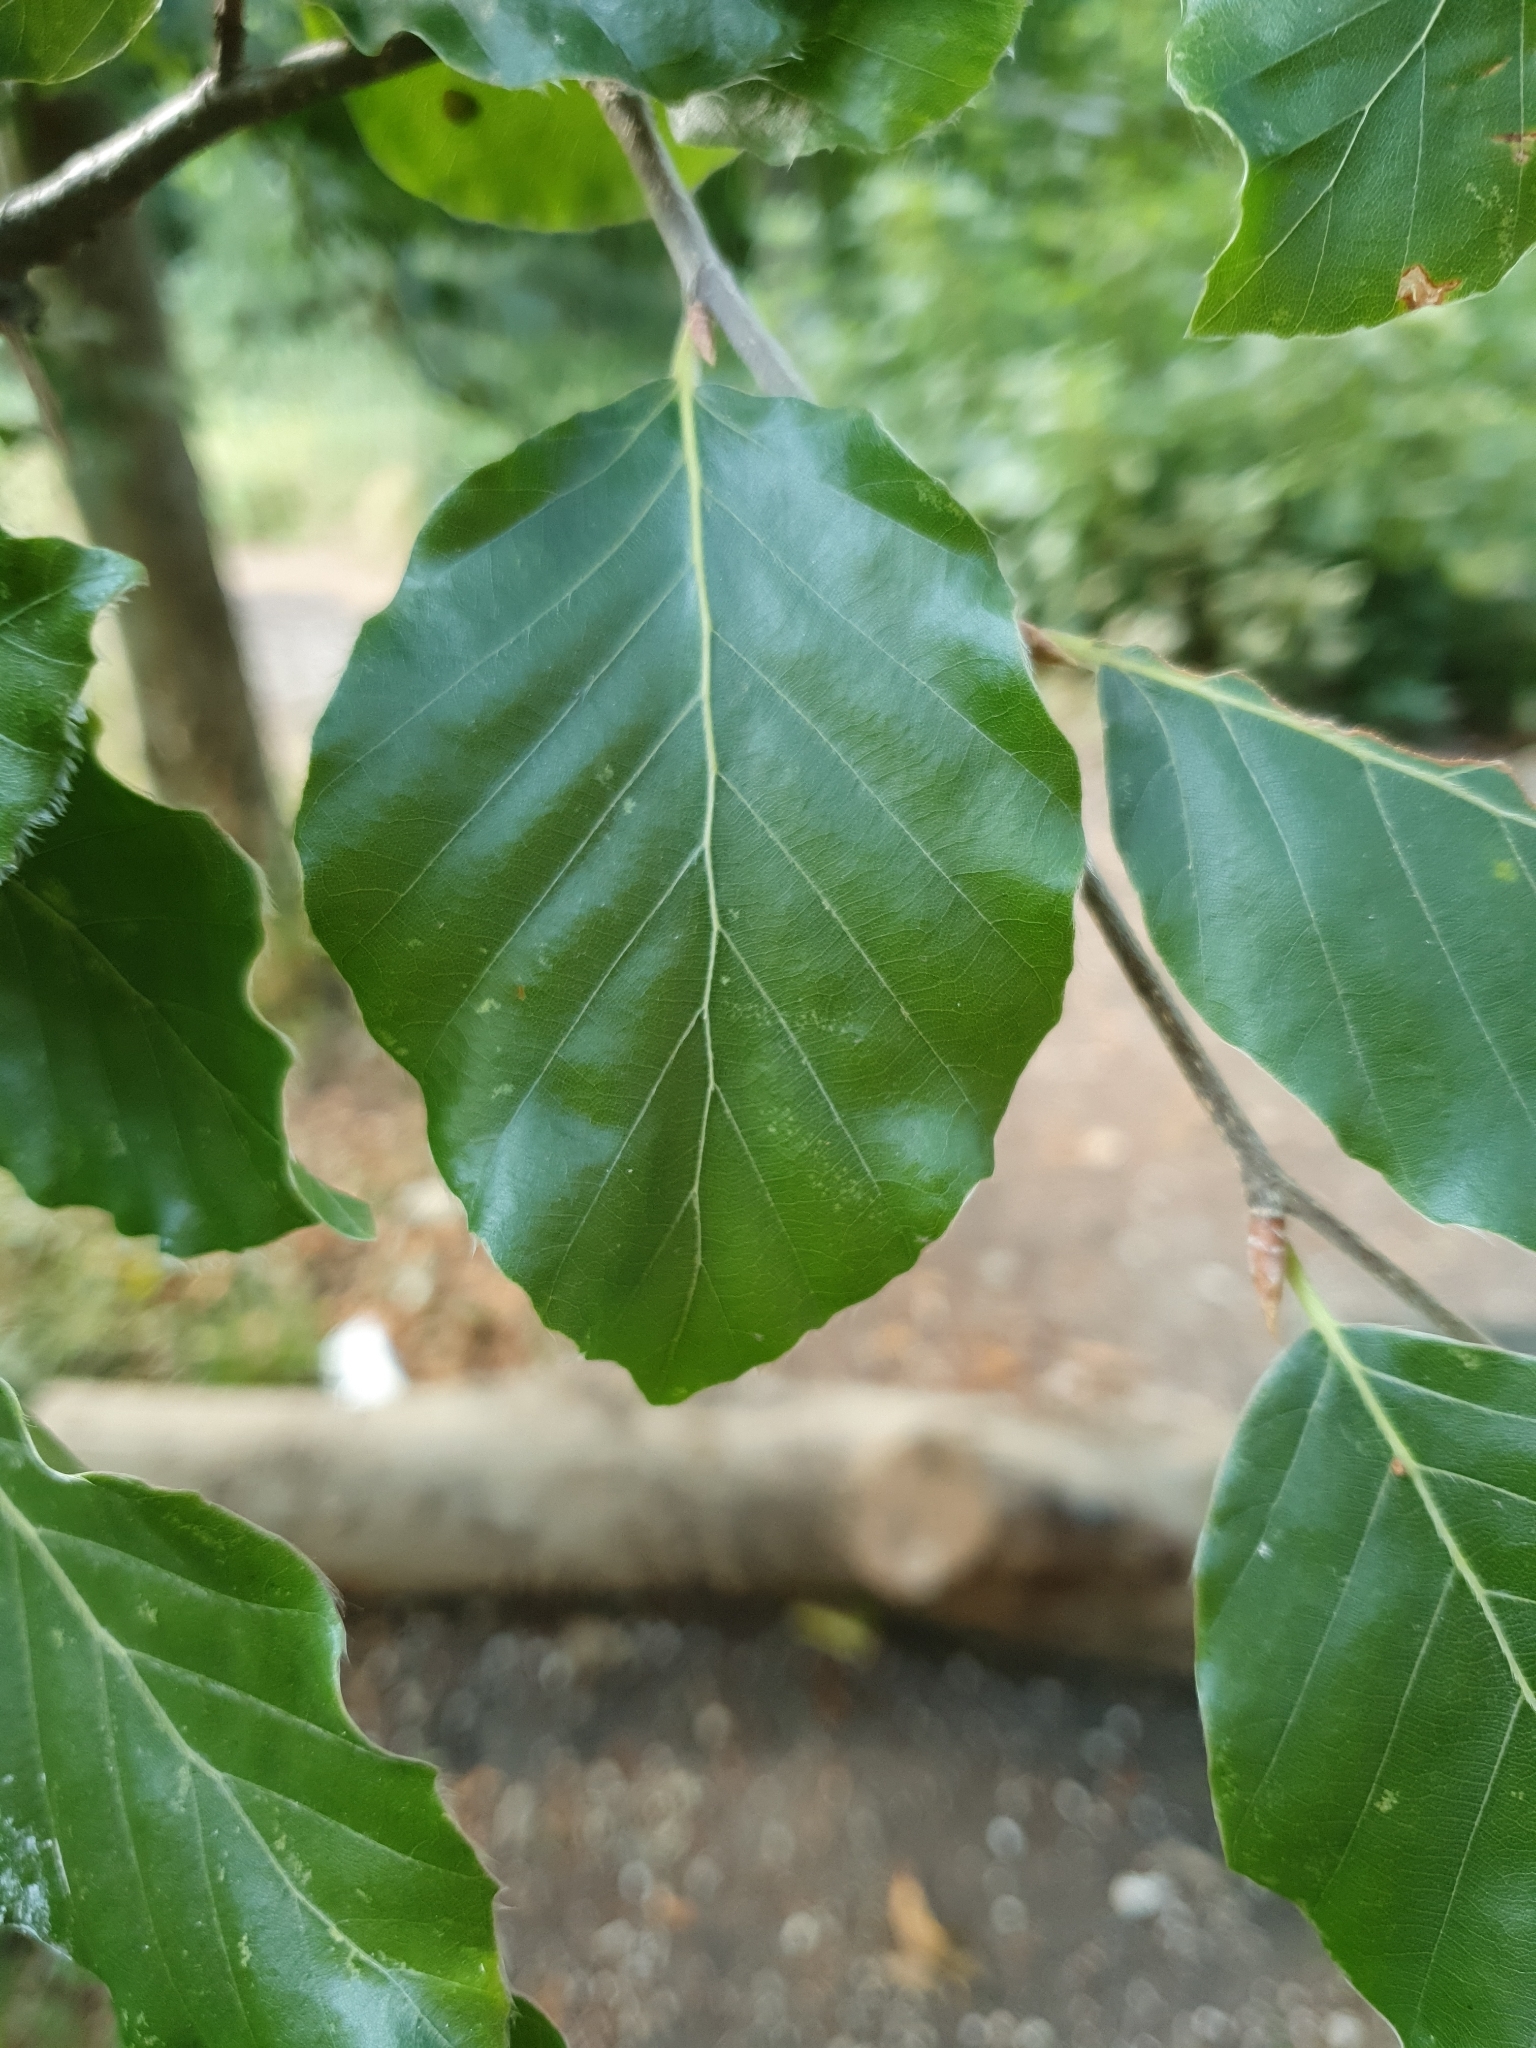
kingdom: Plantae
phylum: Tracheophyta
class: Magnoliopsida
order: Fagales
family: Fagaceae
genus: Fagus
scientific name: Fagus sylvatica
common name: Beech
